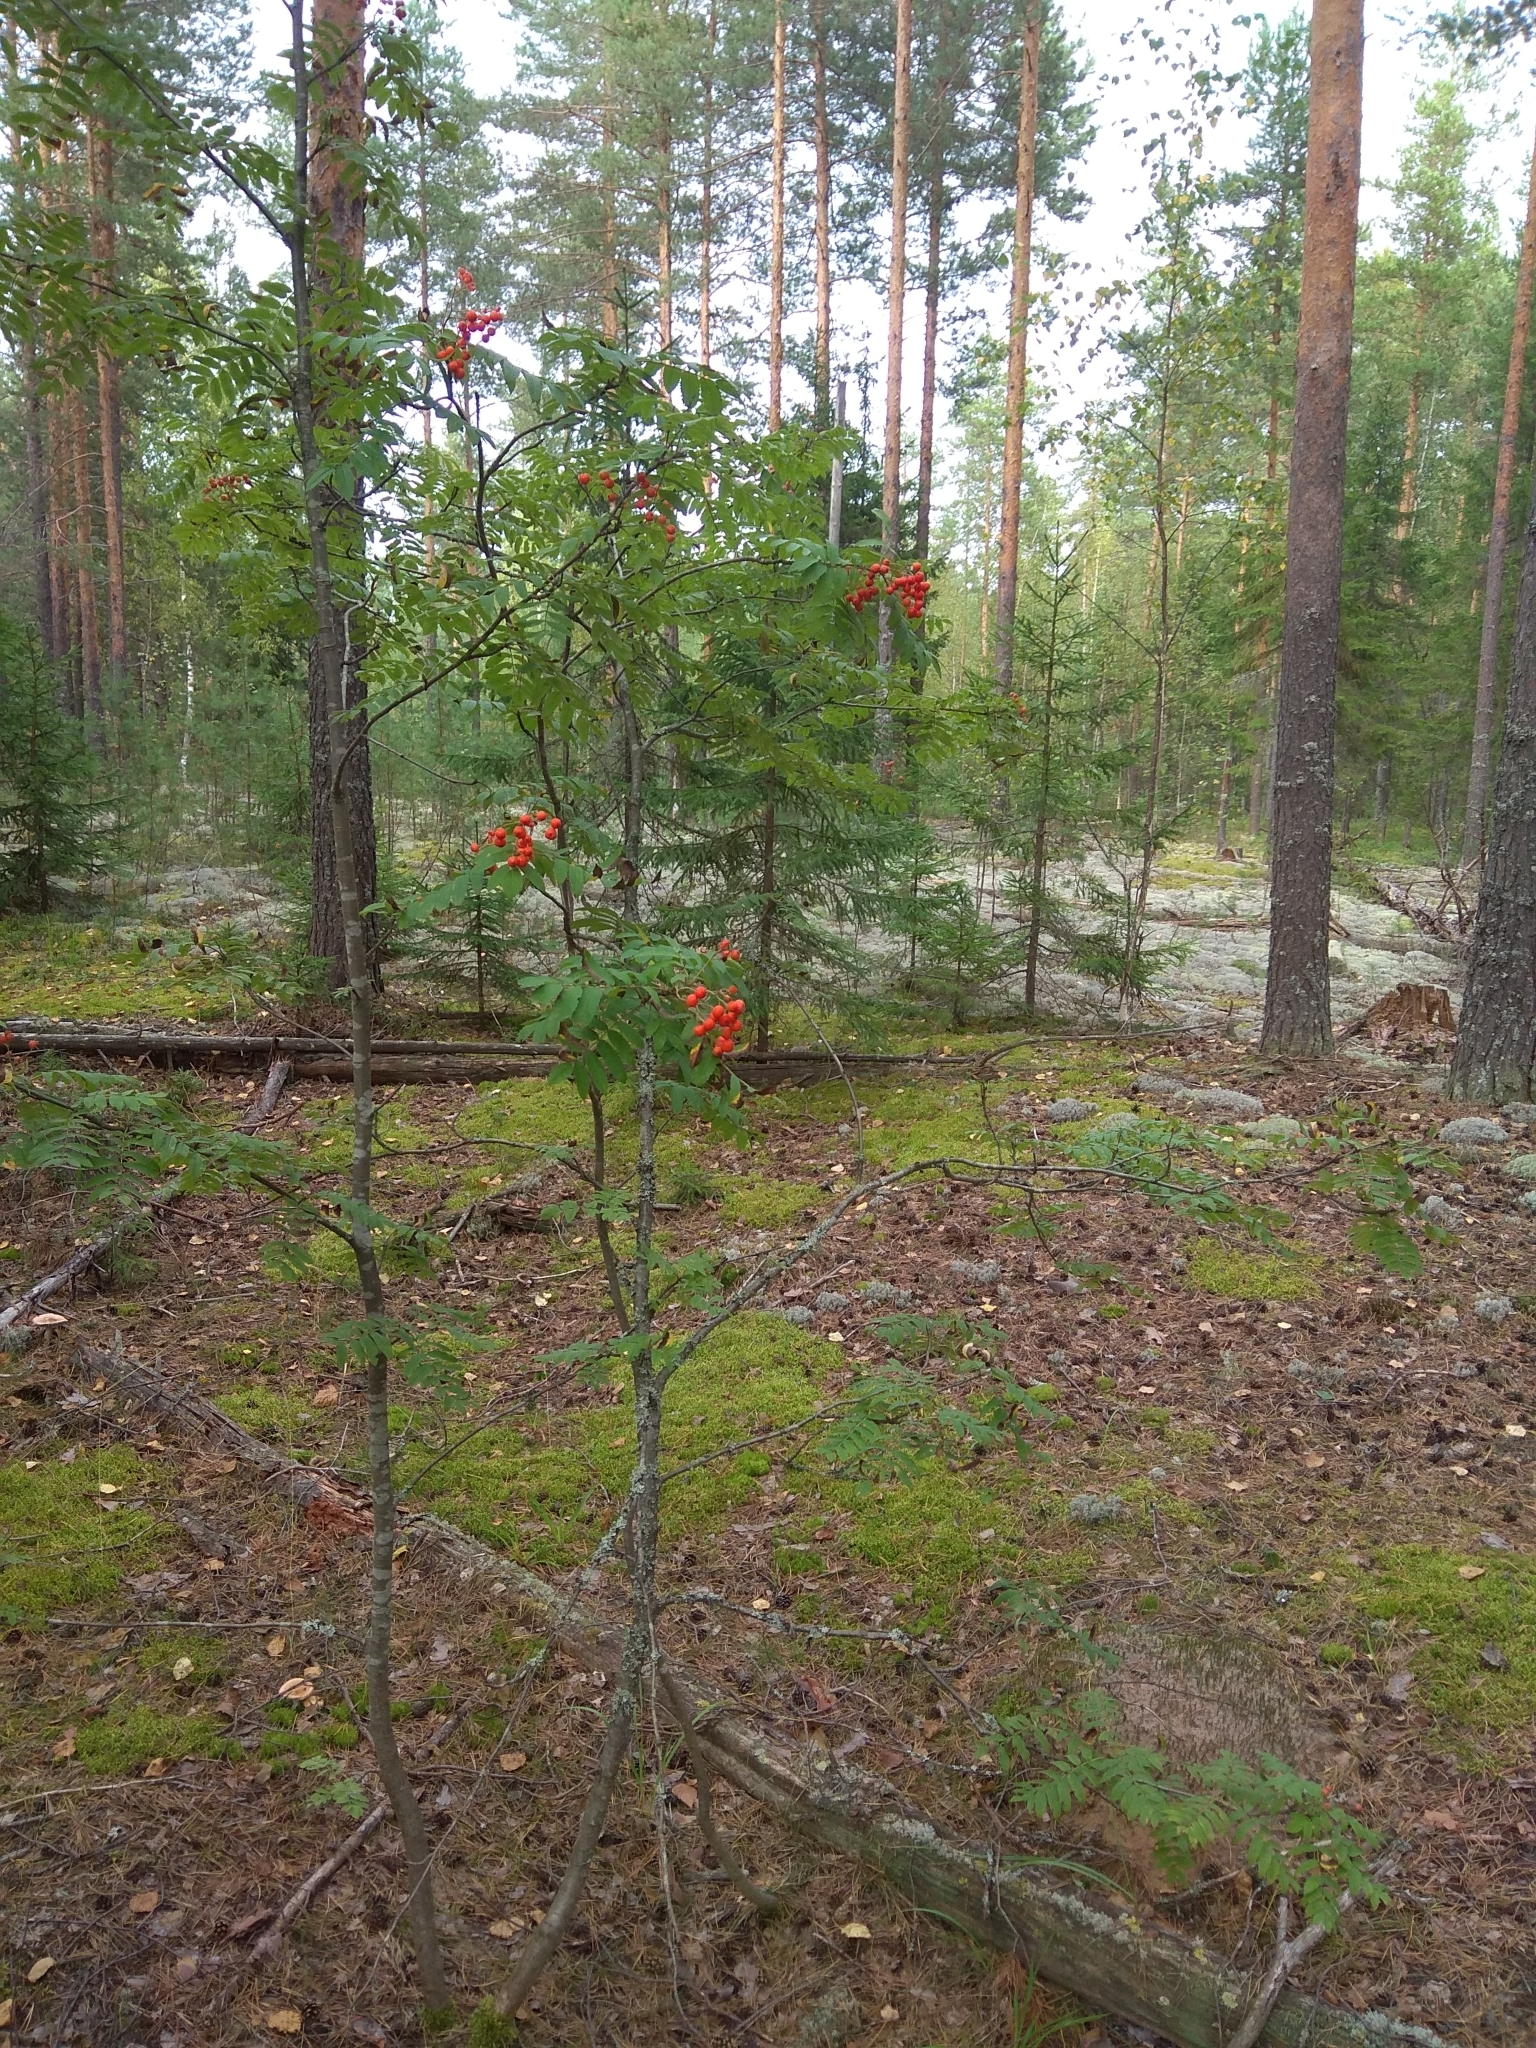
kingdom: Plantae
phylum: Tracheophyta
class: Magnoliopsida
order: Rosales
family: Rosaceae
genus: Sorbus
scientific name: Sorbus aucuparia
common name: Rowan
